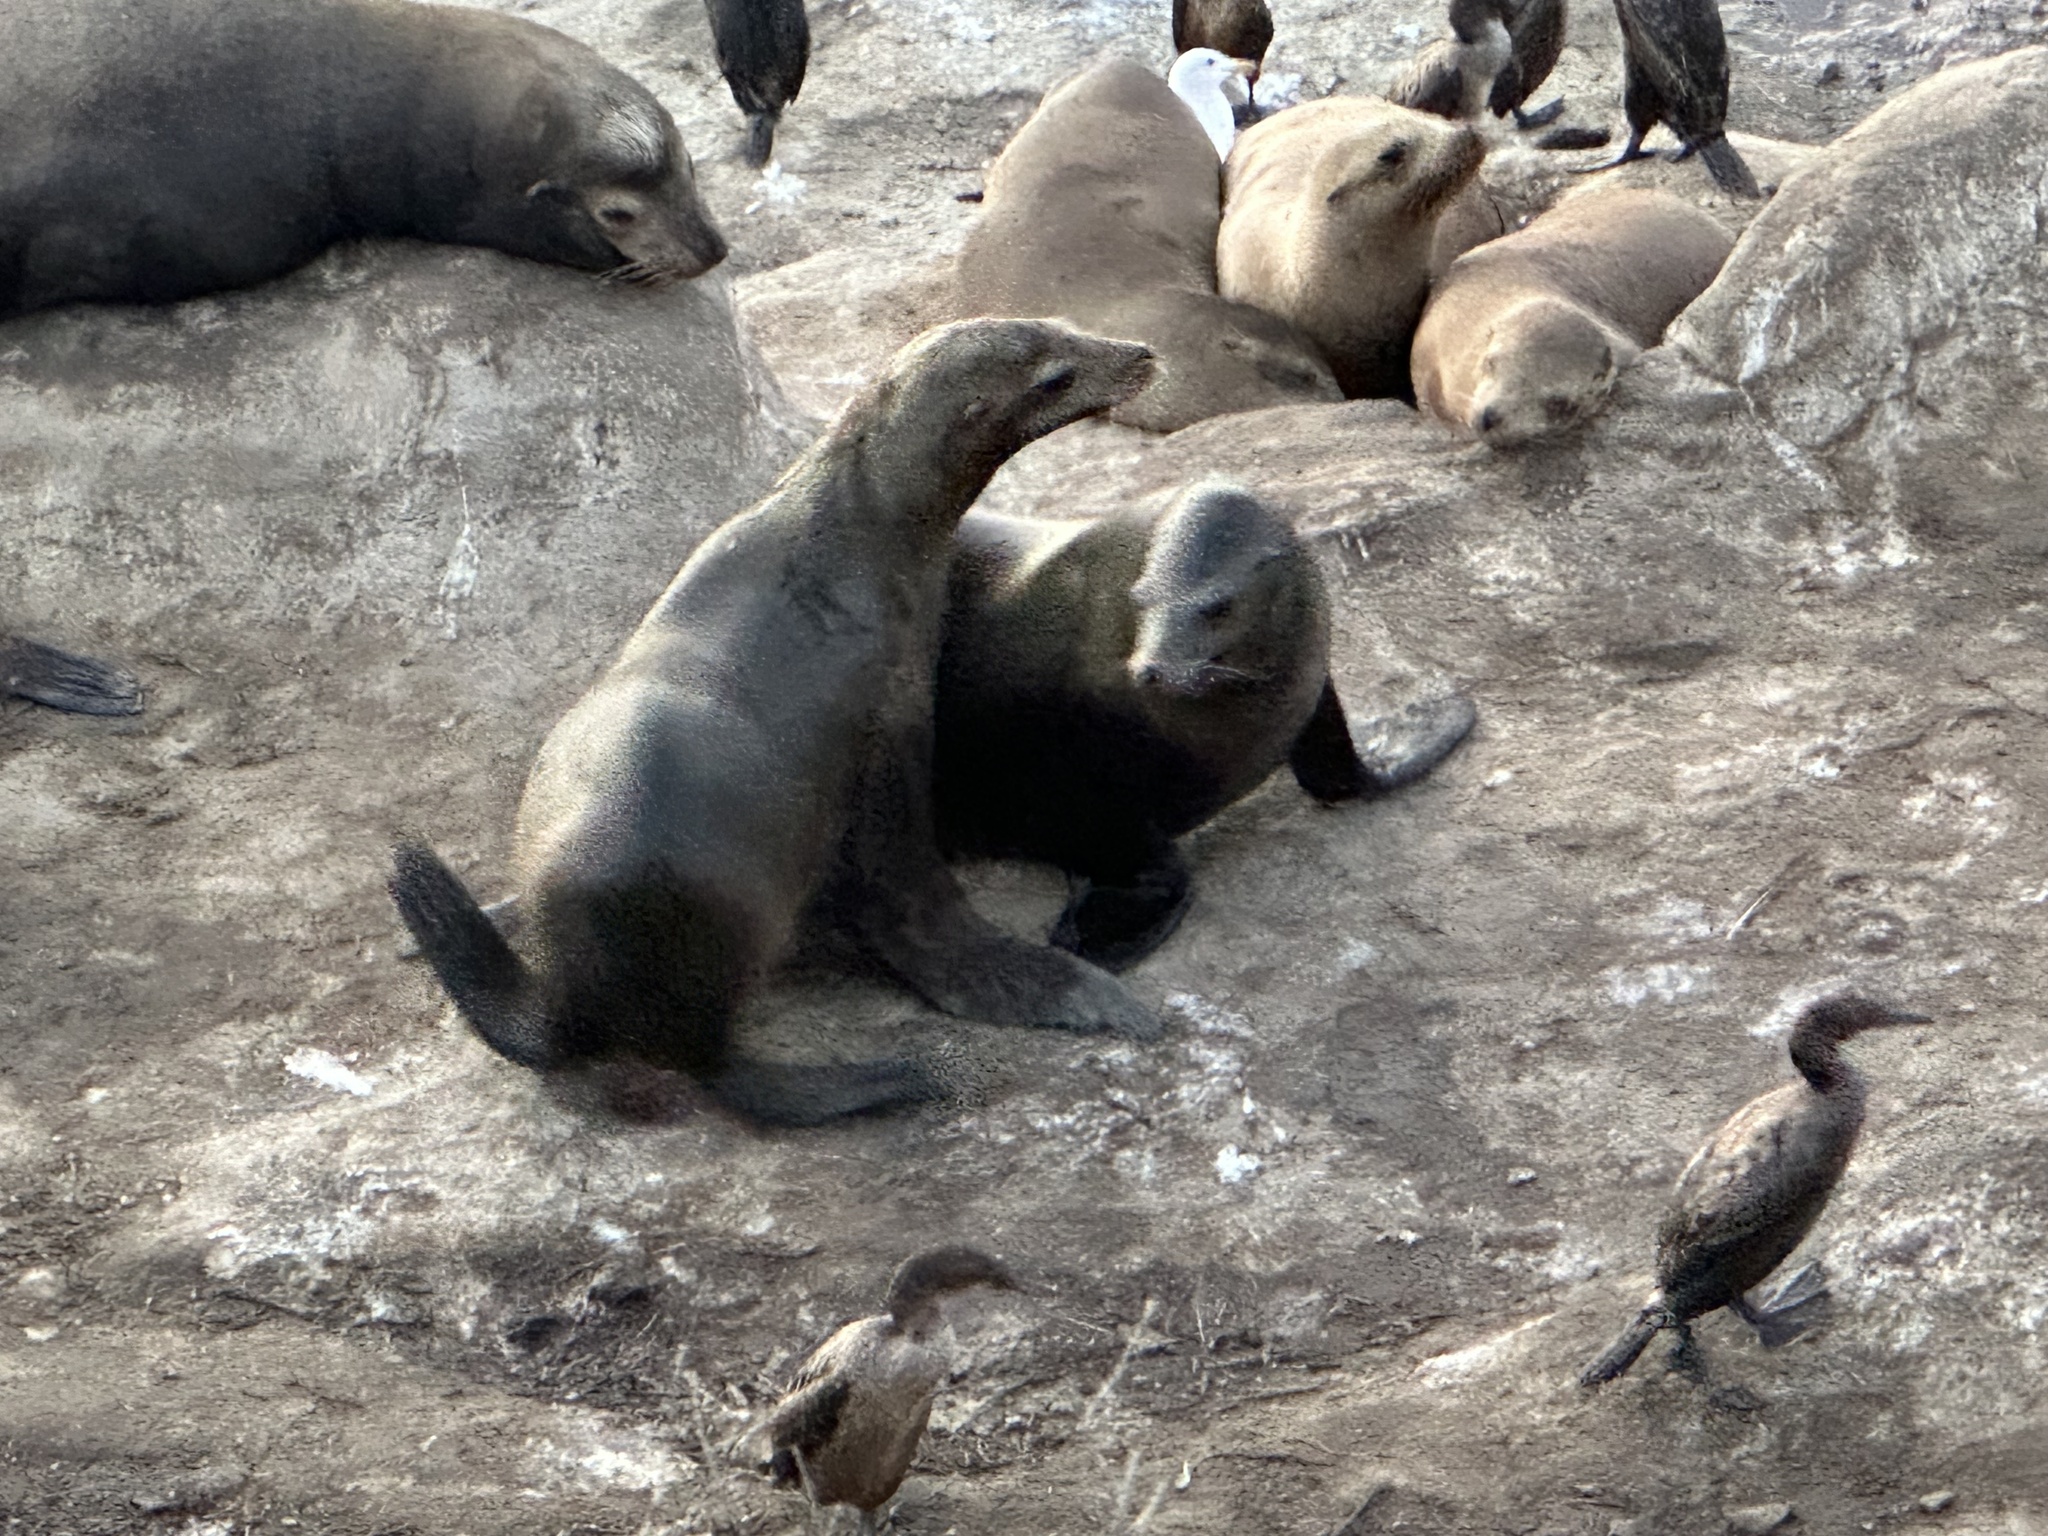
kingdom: Animalia
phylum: Chordata
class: Mammalia
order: Carnivora
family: Otariidae
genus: Zalophus
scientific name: Zalophus californianus
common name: California sea lion
